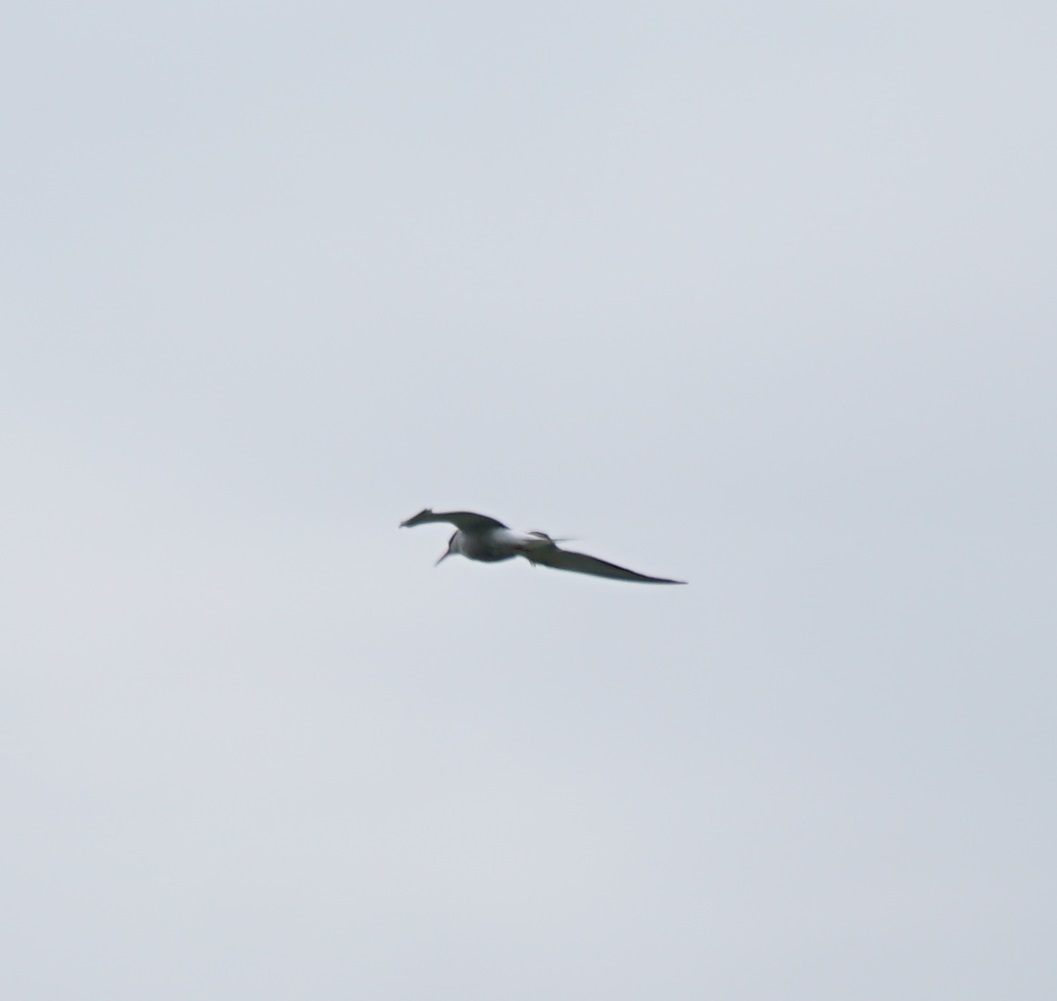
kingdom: Animalia
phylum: Chordata
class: Aves
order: Charadriiformes
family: Laridae
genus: Sterna
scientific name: Sterna hirundo
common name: Common tern
